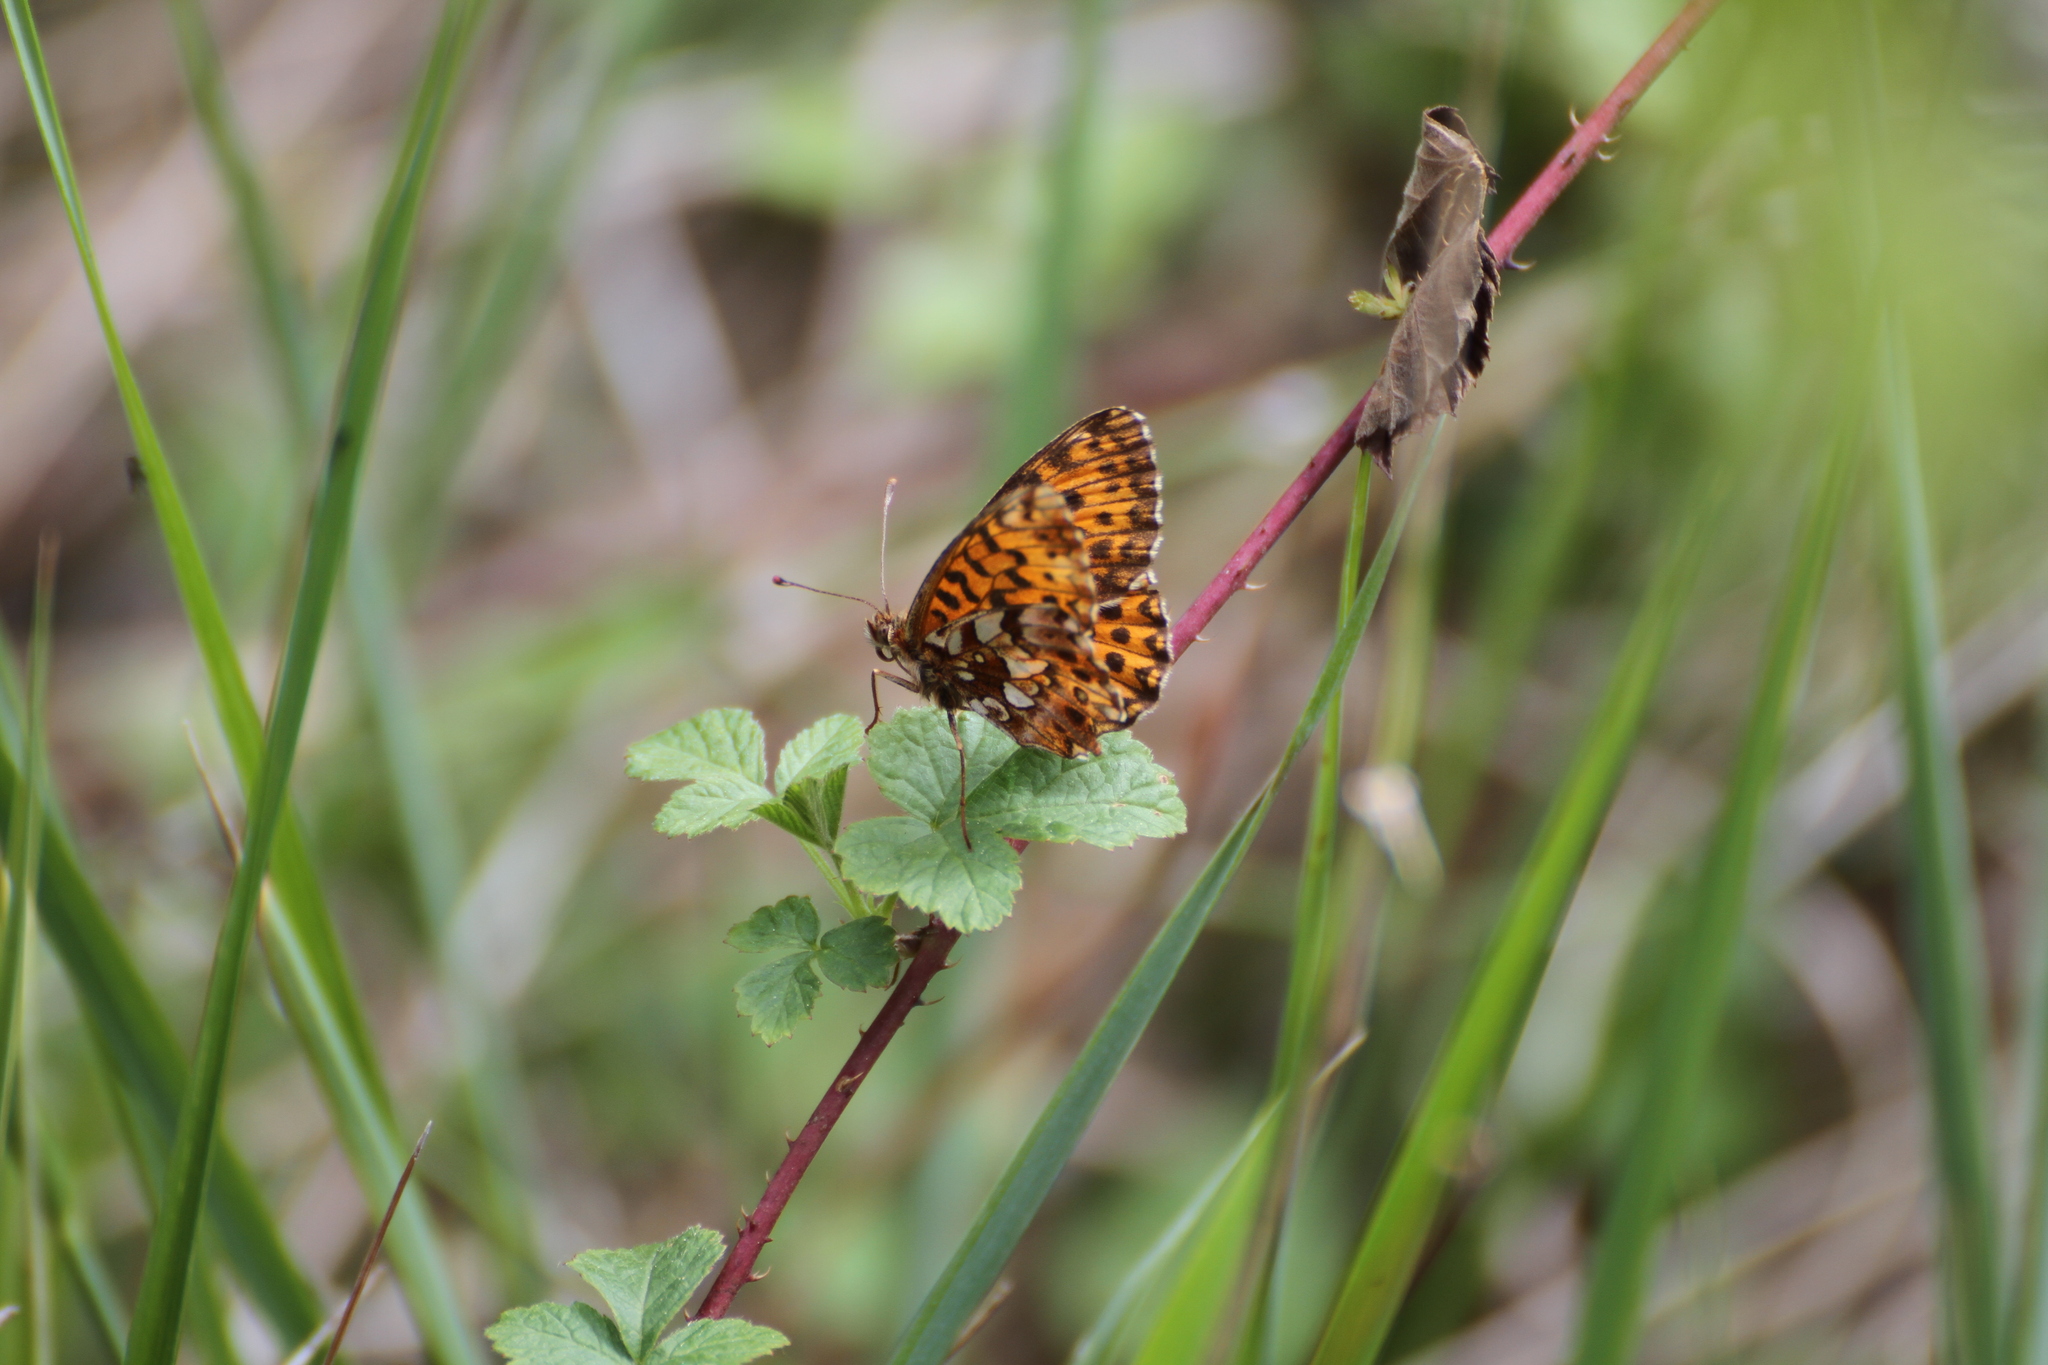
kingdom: Animalia
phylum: Arthropoda
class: Insecta
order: Lepidoptera
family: Nymphalidae
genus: Boloria
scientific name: Boloria dia
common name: Weaver's fritillary
